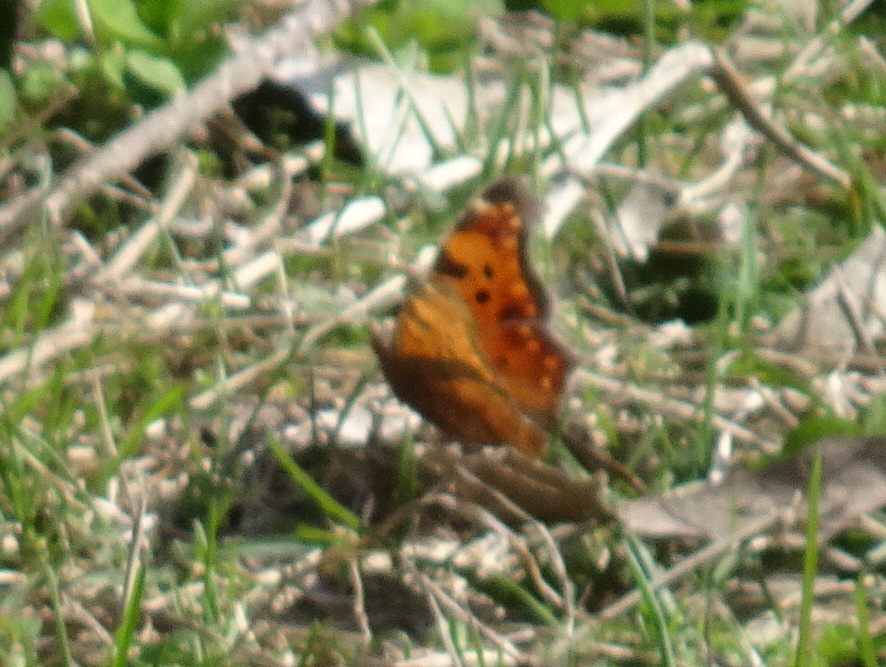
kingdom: Animalia
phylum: Arthropoda
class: Insecta
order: Lepidoptera
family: Nymphalidae
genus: Polygonia
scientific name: Polygonia comma
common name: Eastern comma
